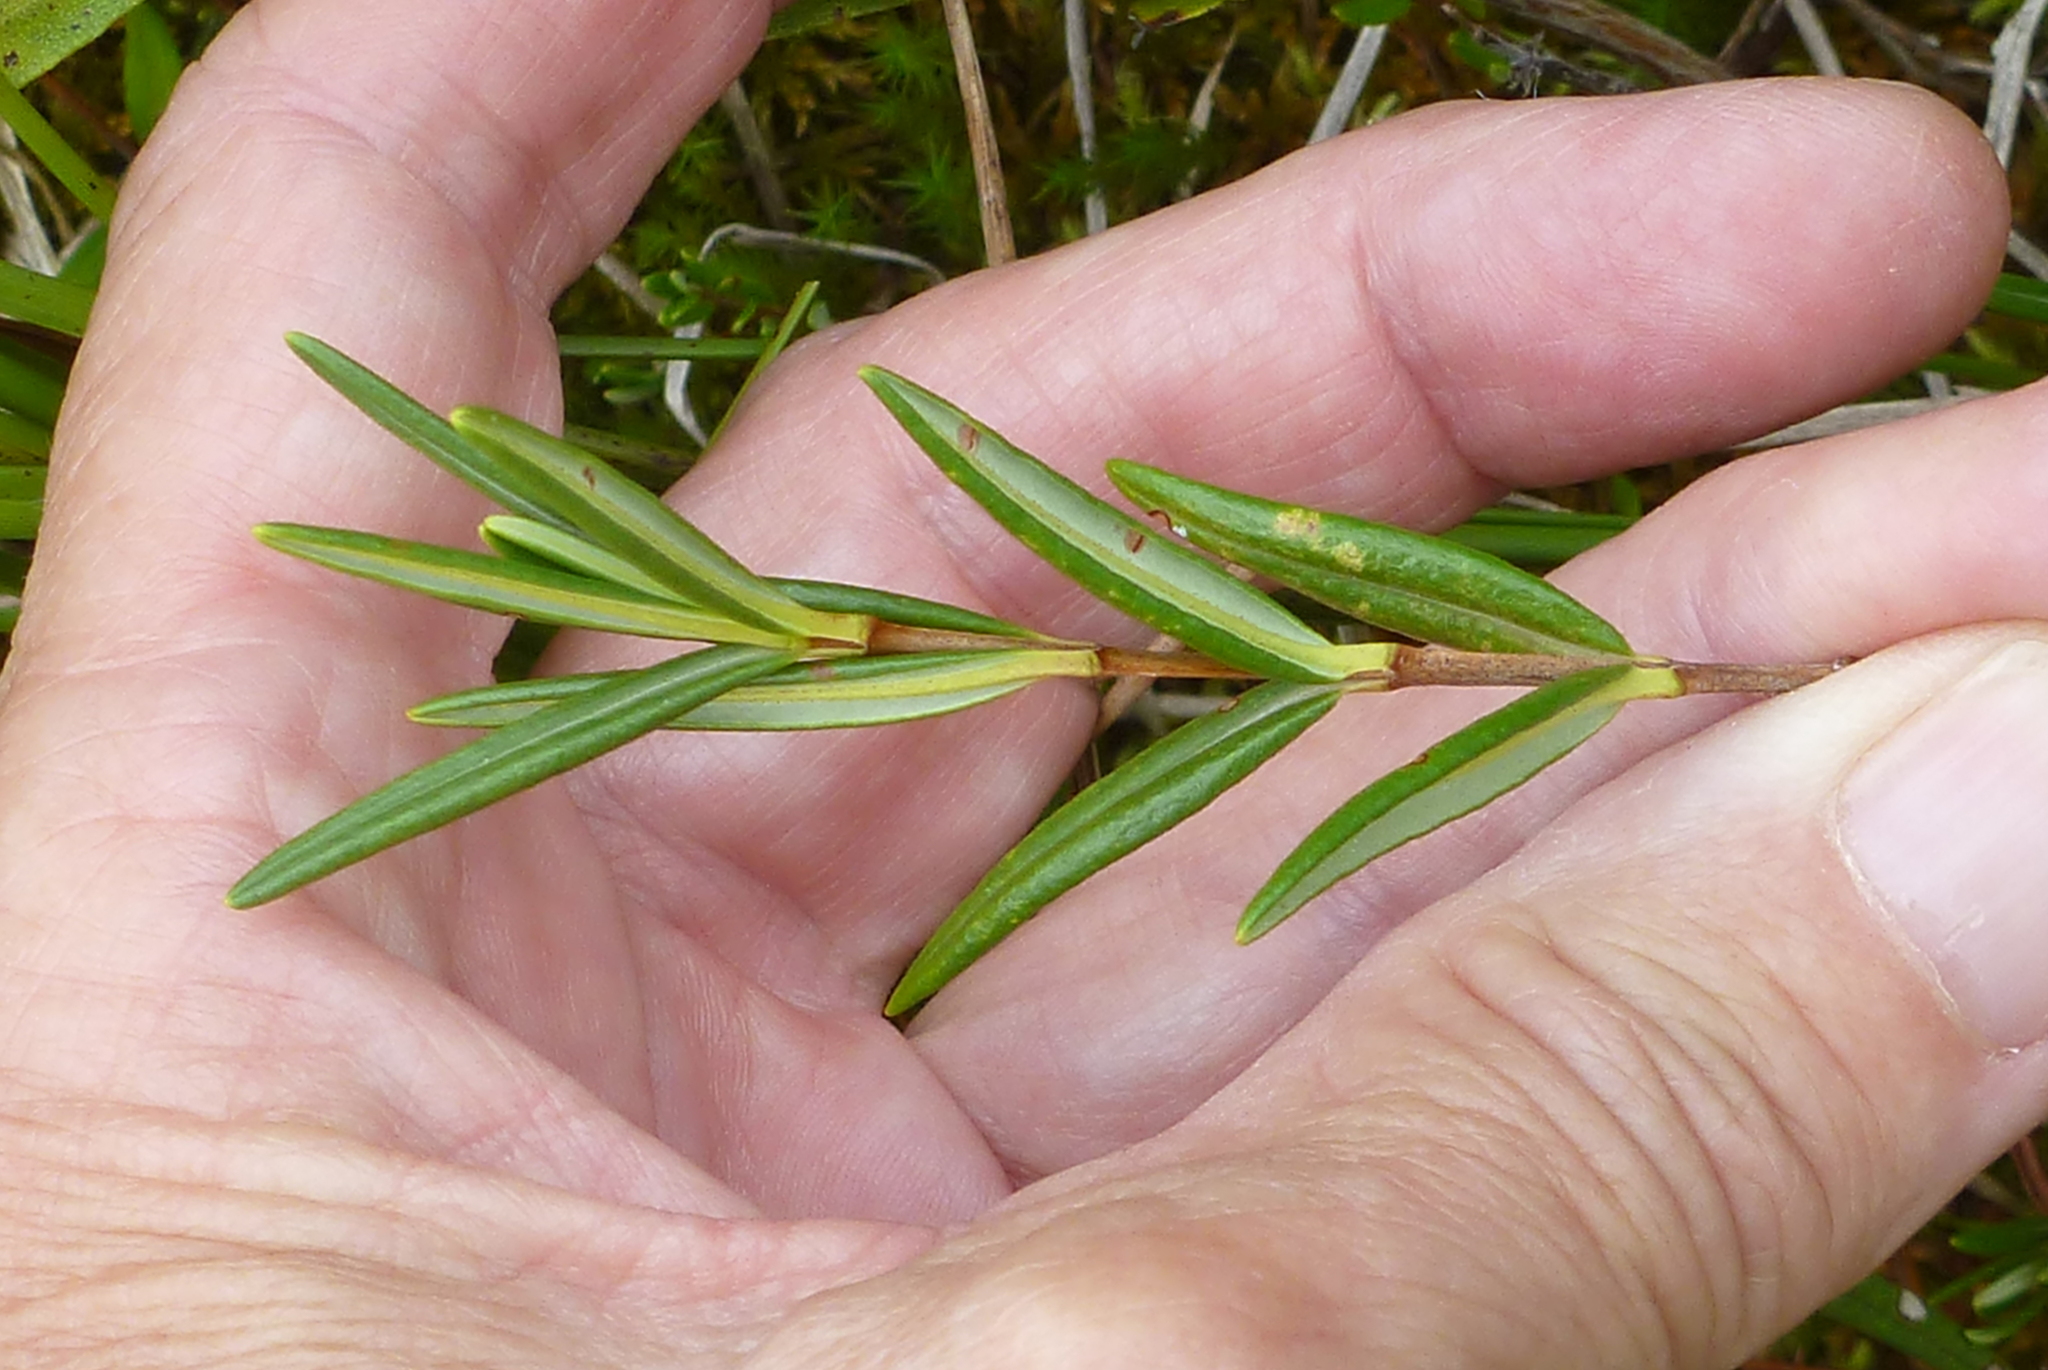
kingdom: Plantae
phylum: Tracheophyta
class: Magnoliopsida
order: Ericales
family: Ericaceae
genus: Kalmia
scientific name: Kalmia polifolia
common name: Bog-laurel
